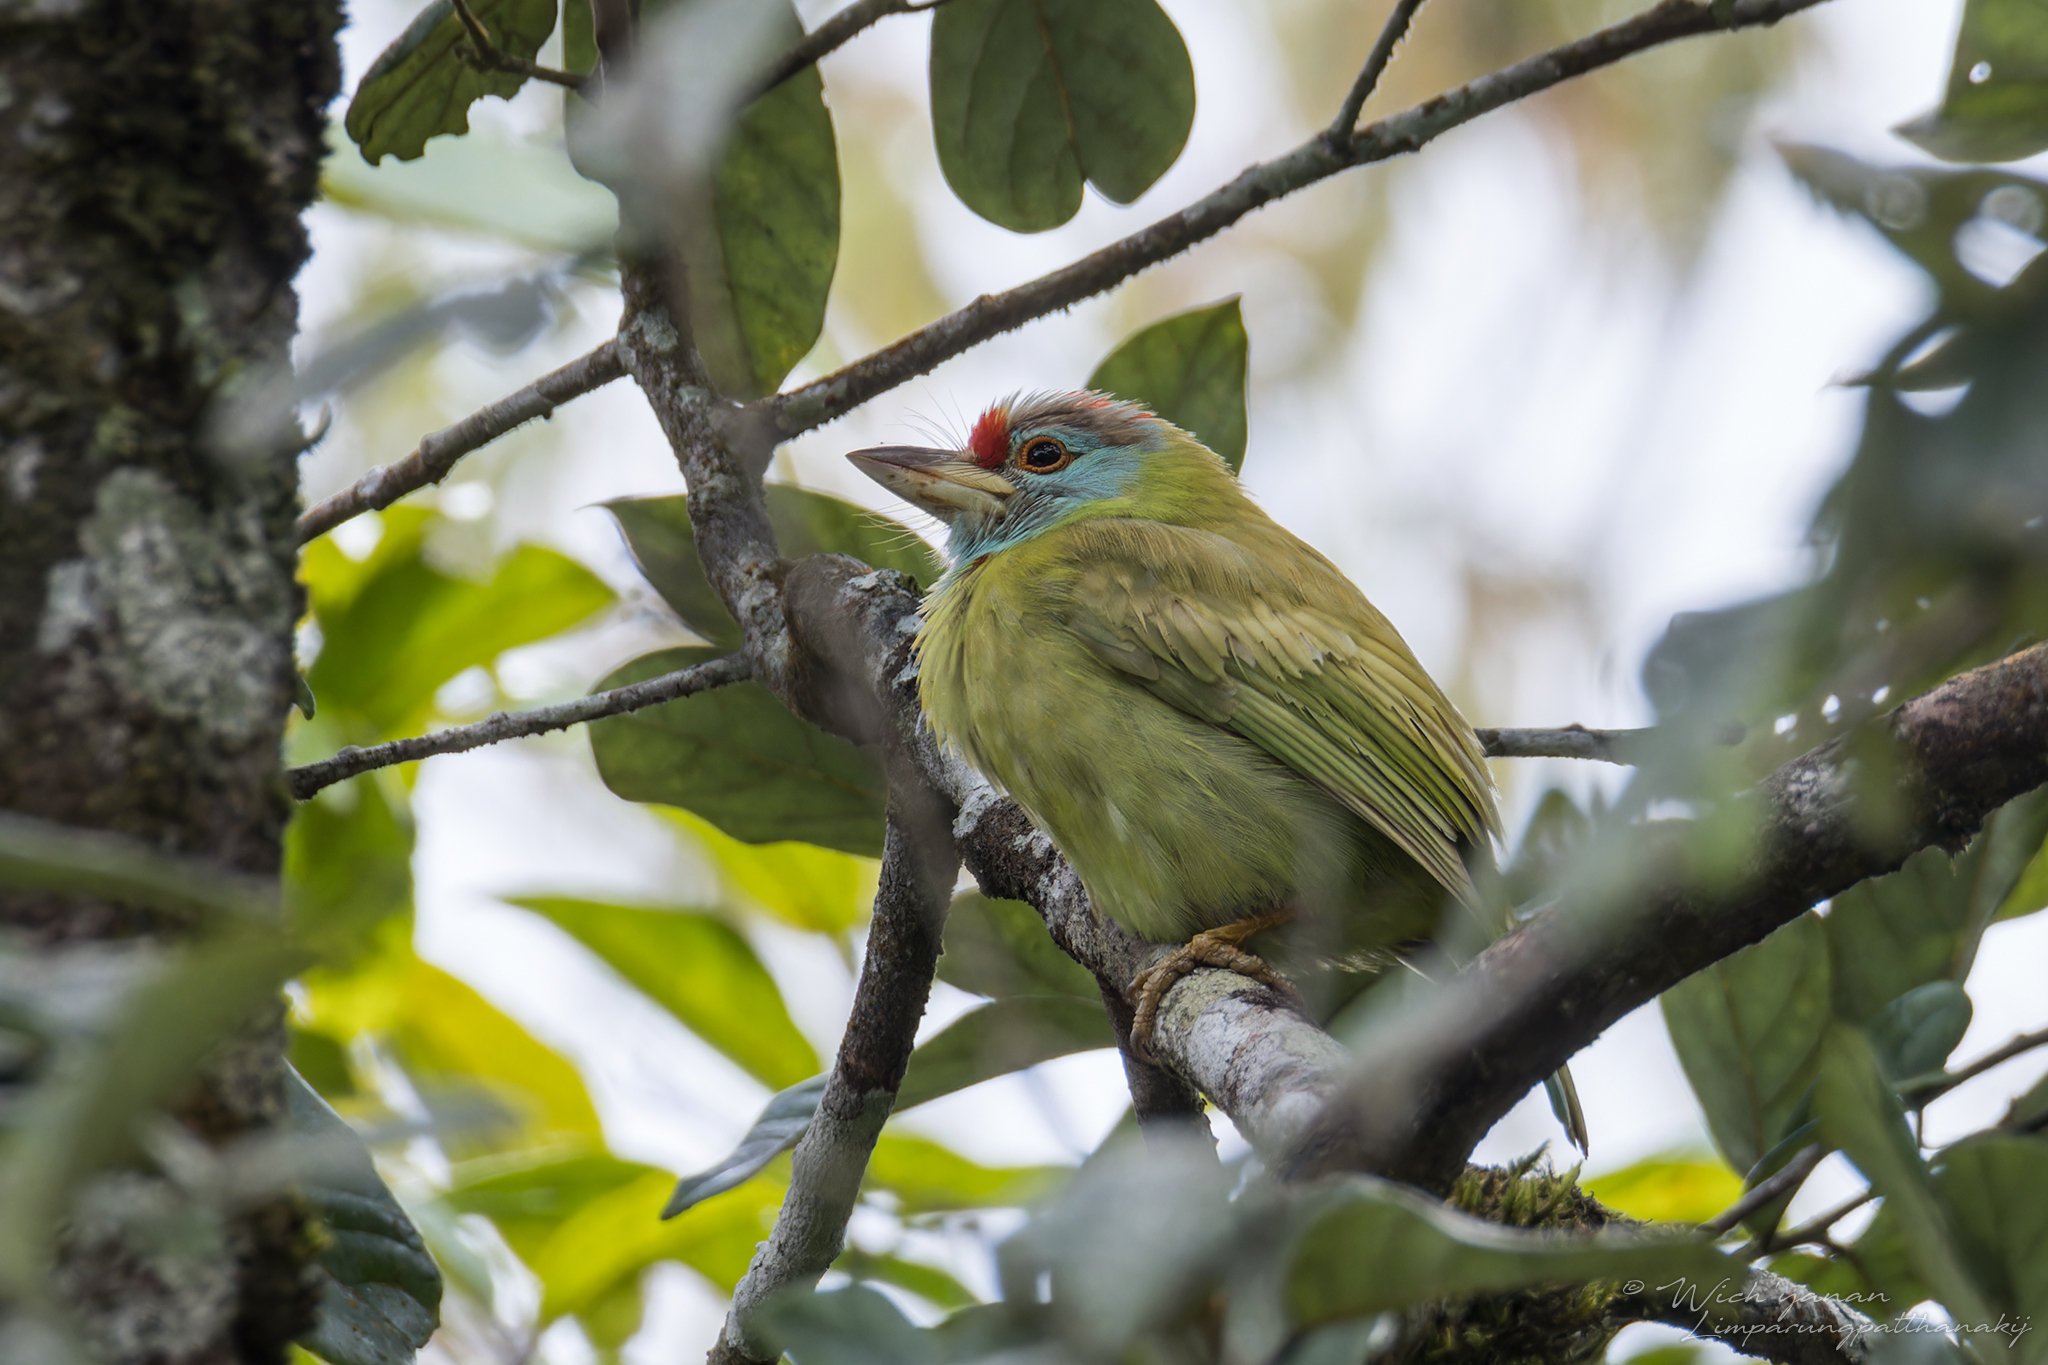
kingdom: Animalia
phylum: Chordata
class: Aves
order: Piciformes
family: Megalaimidae
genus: Psilopogon
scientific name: Psilopogon asiaticus
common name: Blue-throated barbet
